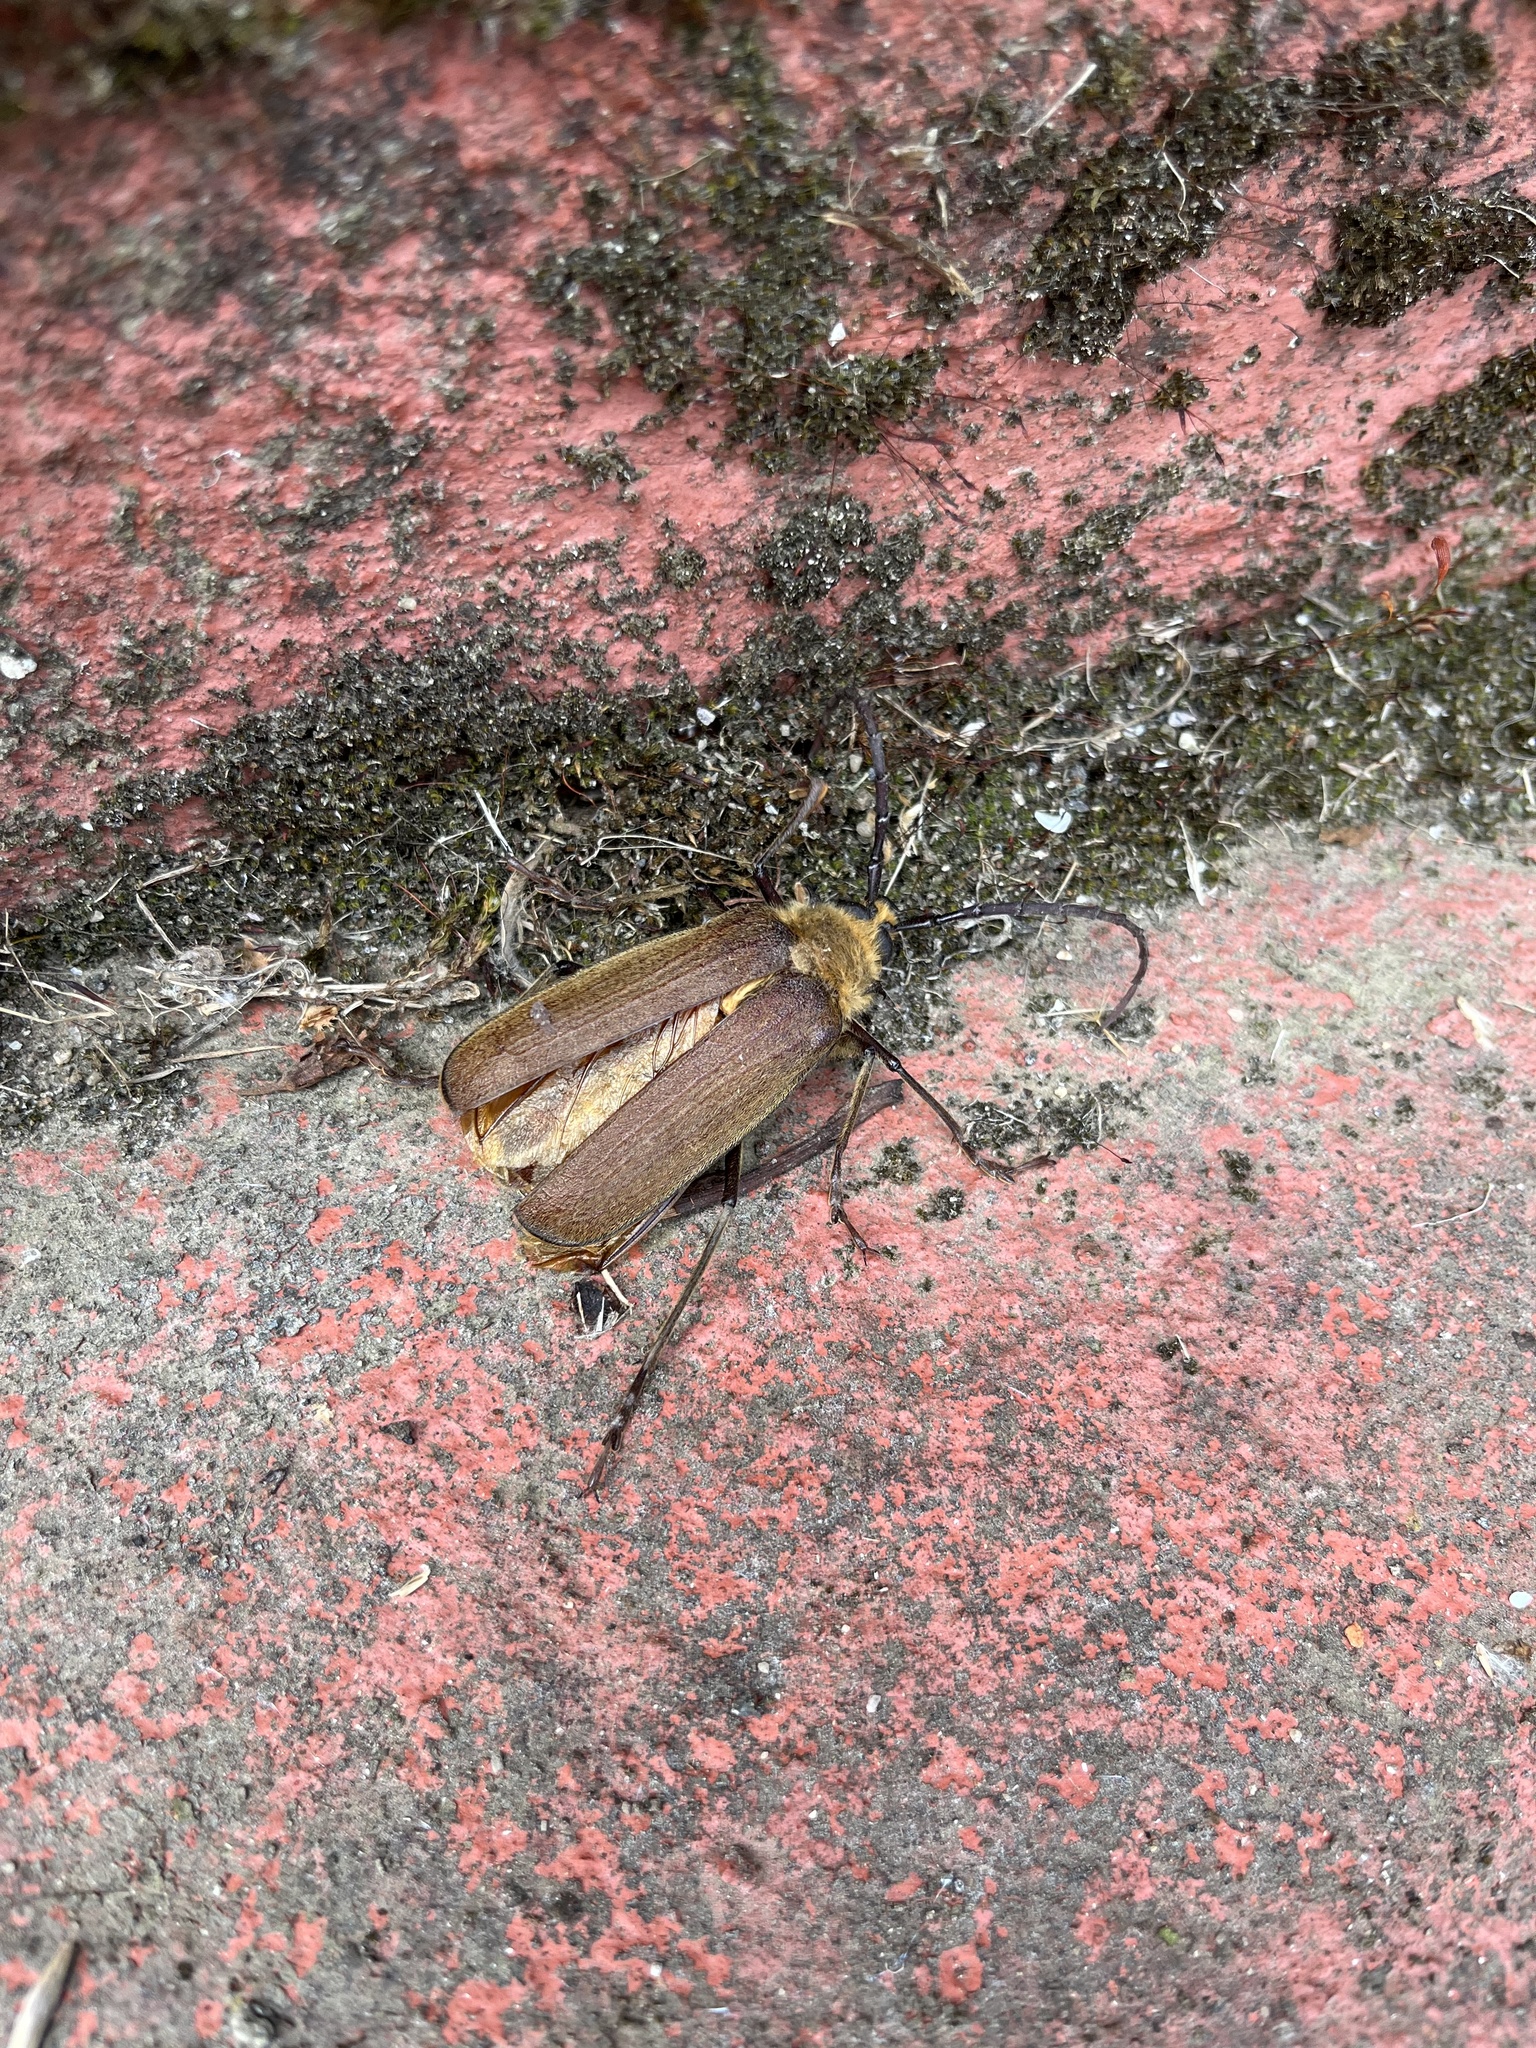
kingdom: Animalia
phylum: Arthropoda
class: Insecta
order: Coleoptera
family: Cerambycidae
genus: Acanthinodera
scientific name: Acanthinodera cumingii
